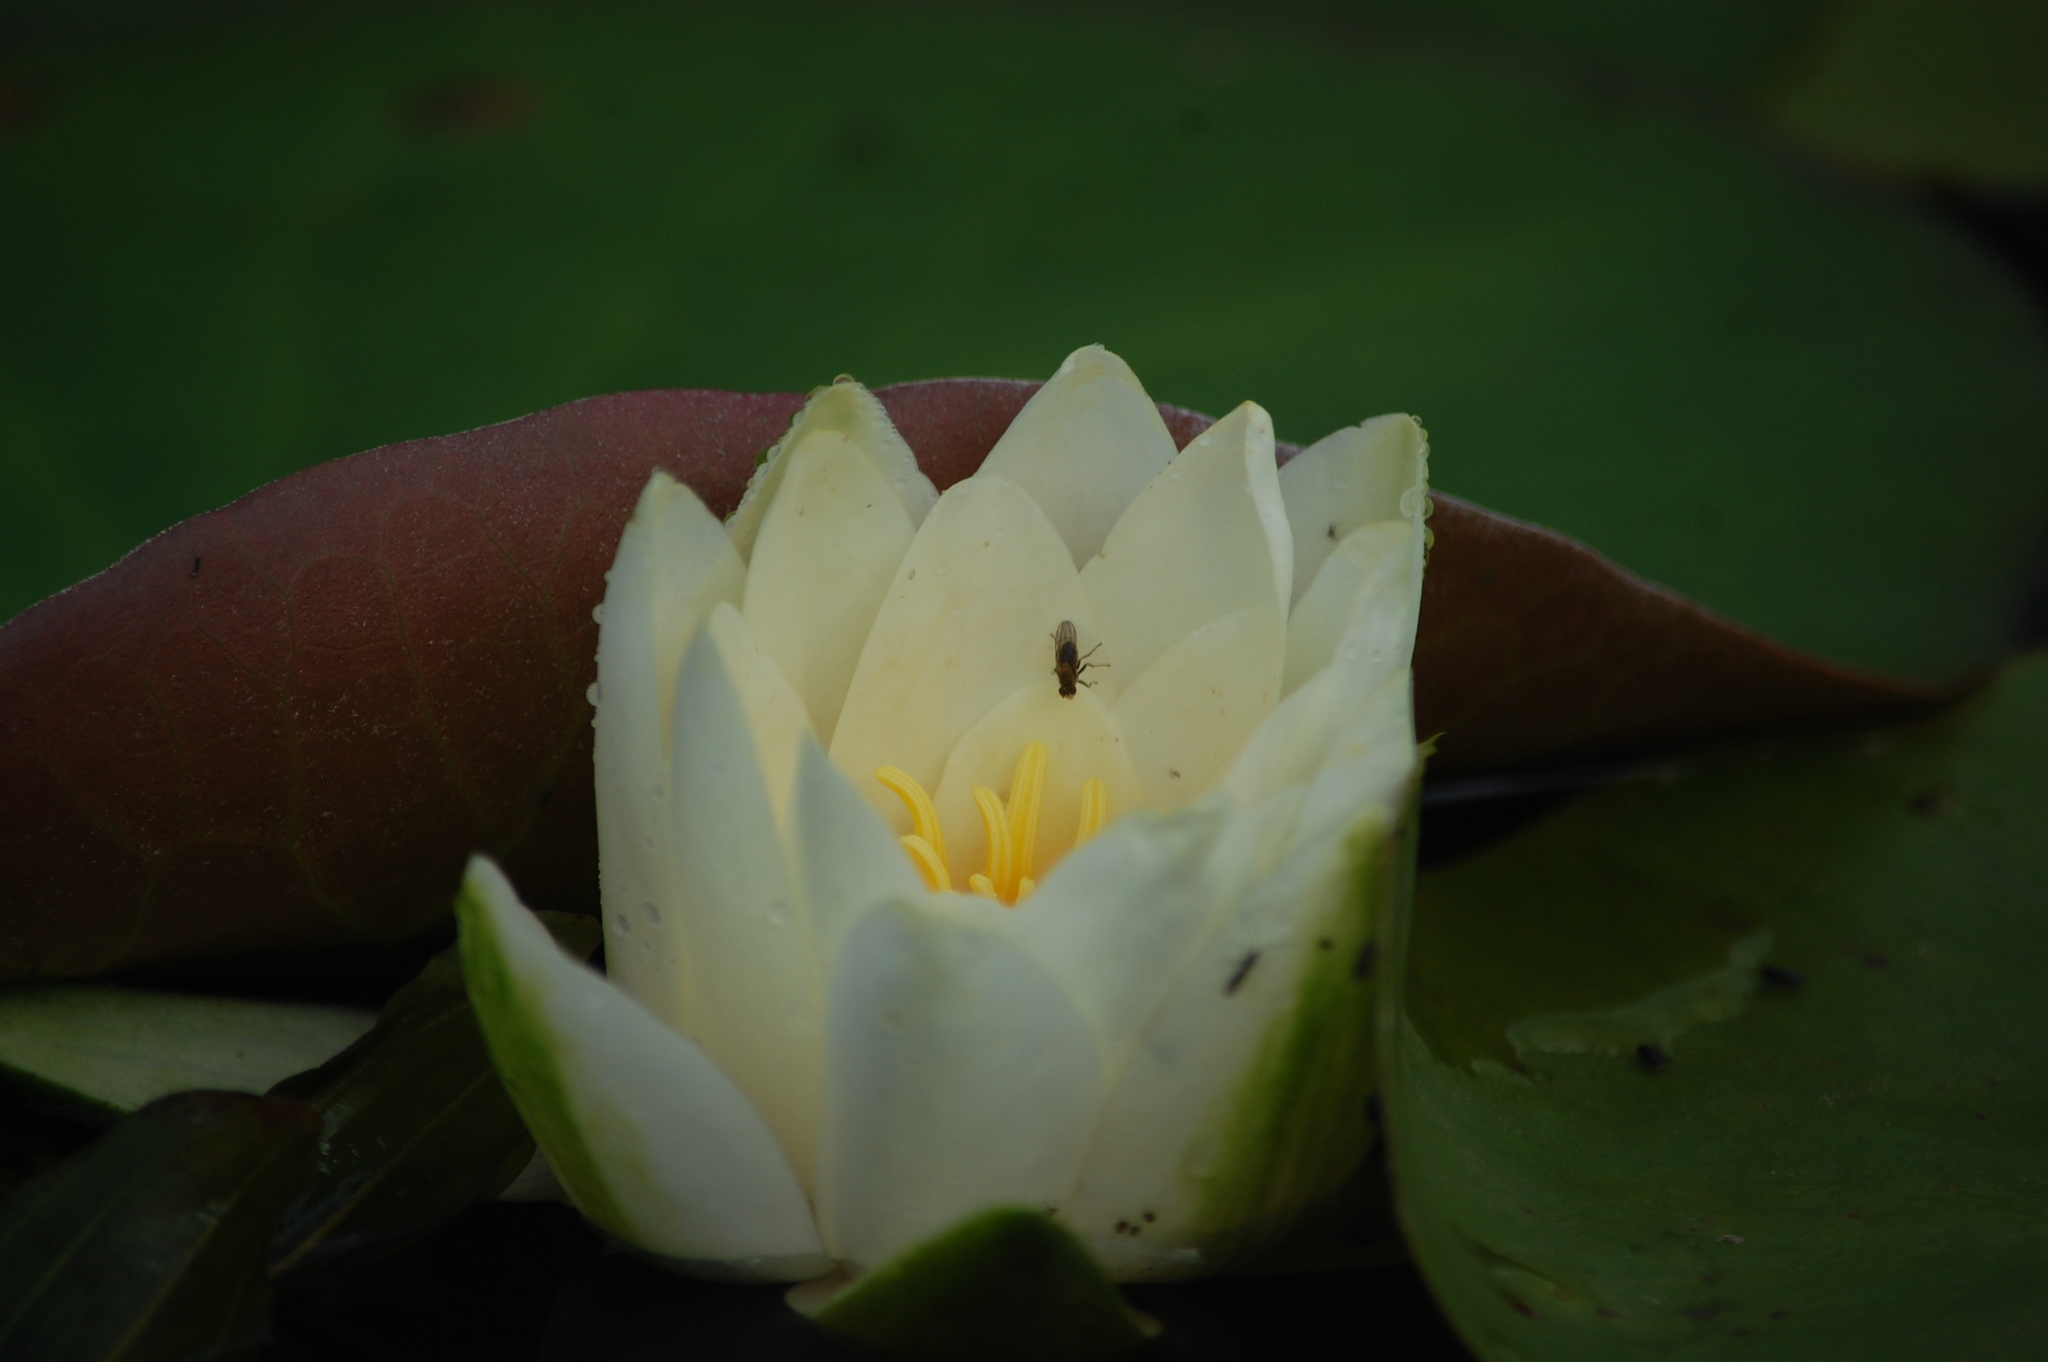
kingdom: Plantae
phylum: Tracheophyta
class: Magnoliopsida
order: Nymphaeales
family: Nymphaeaceae
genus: Nymphaea
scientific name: Nymphaea candida
